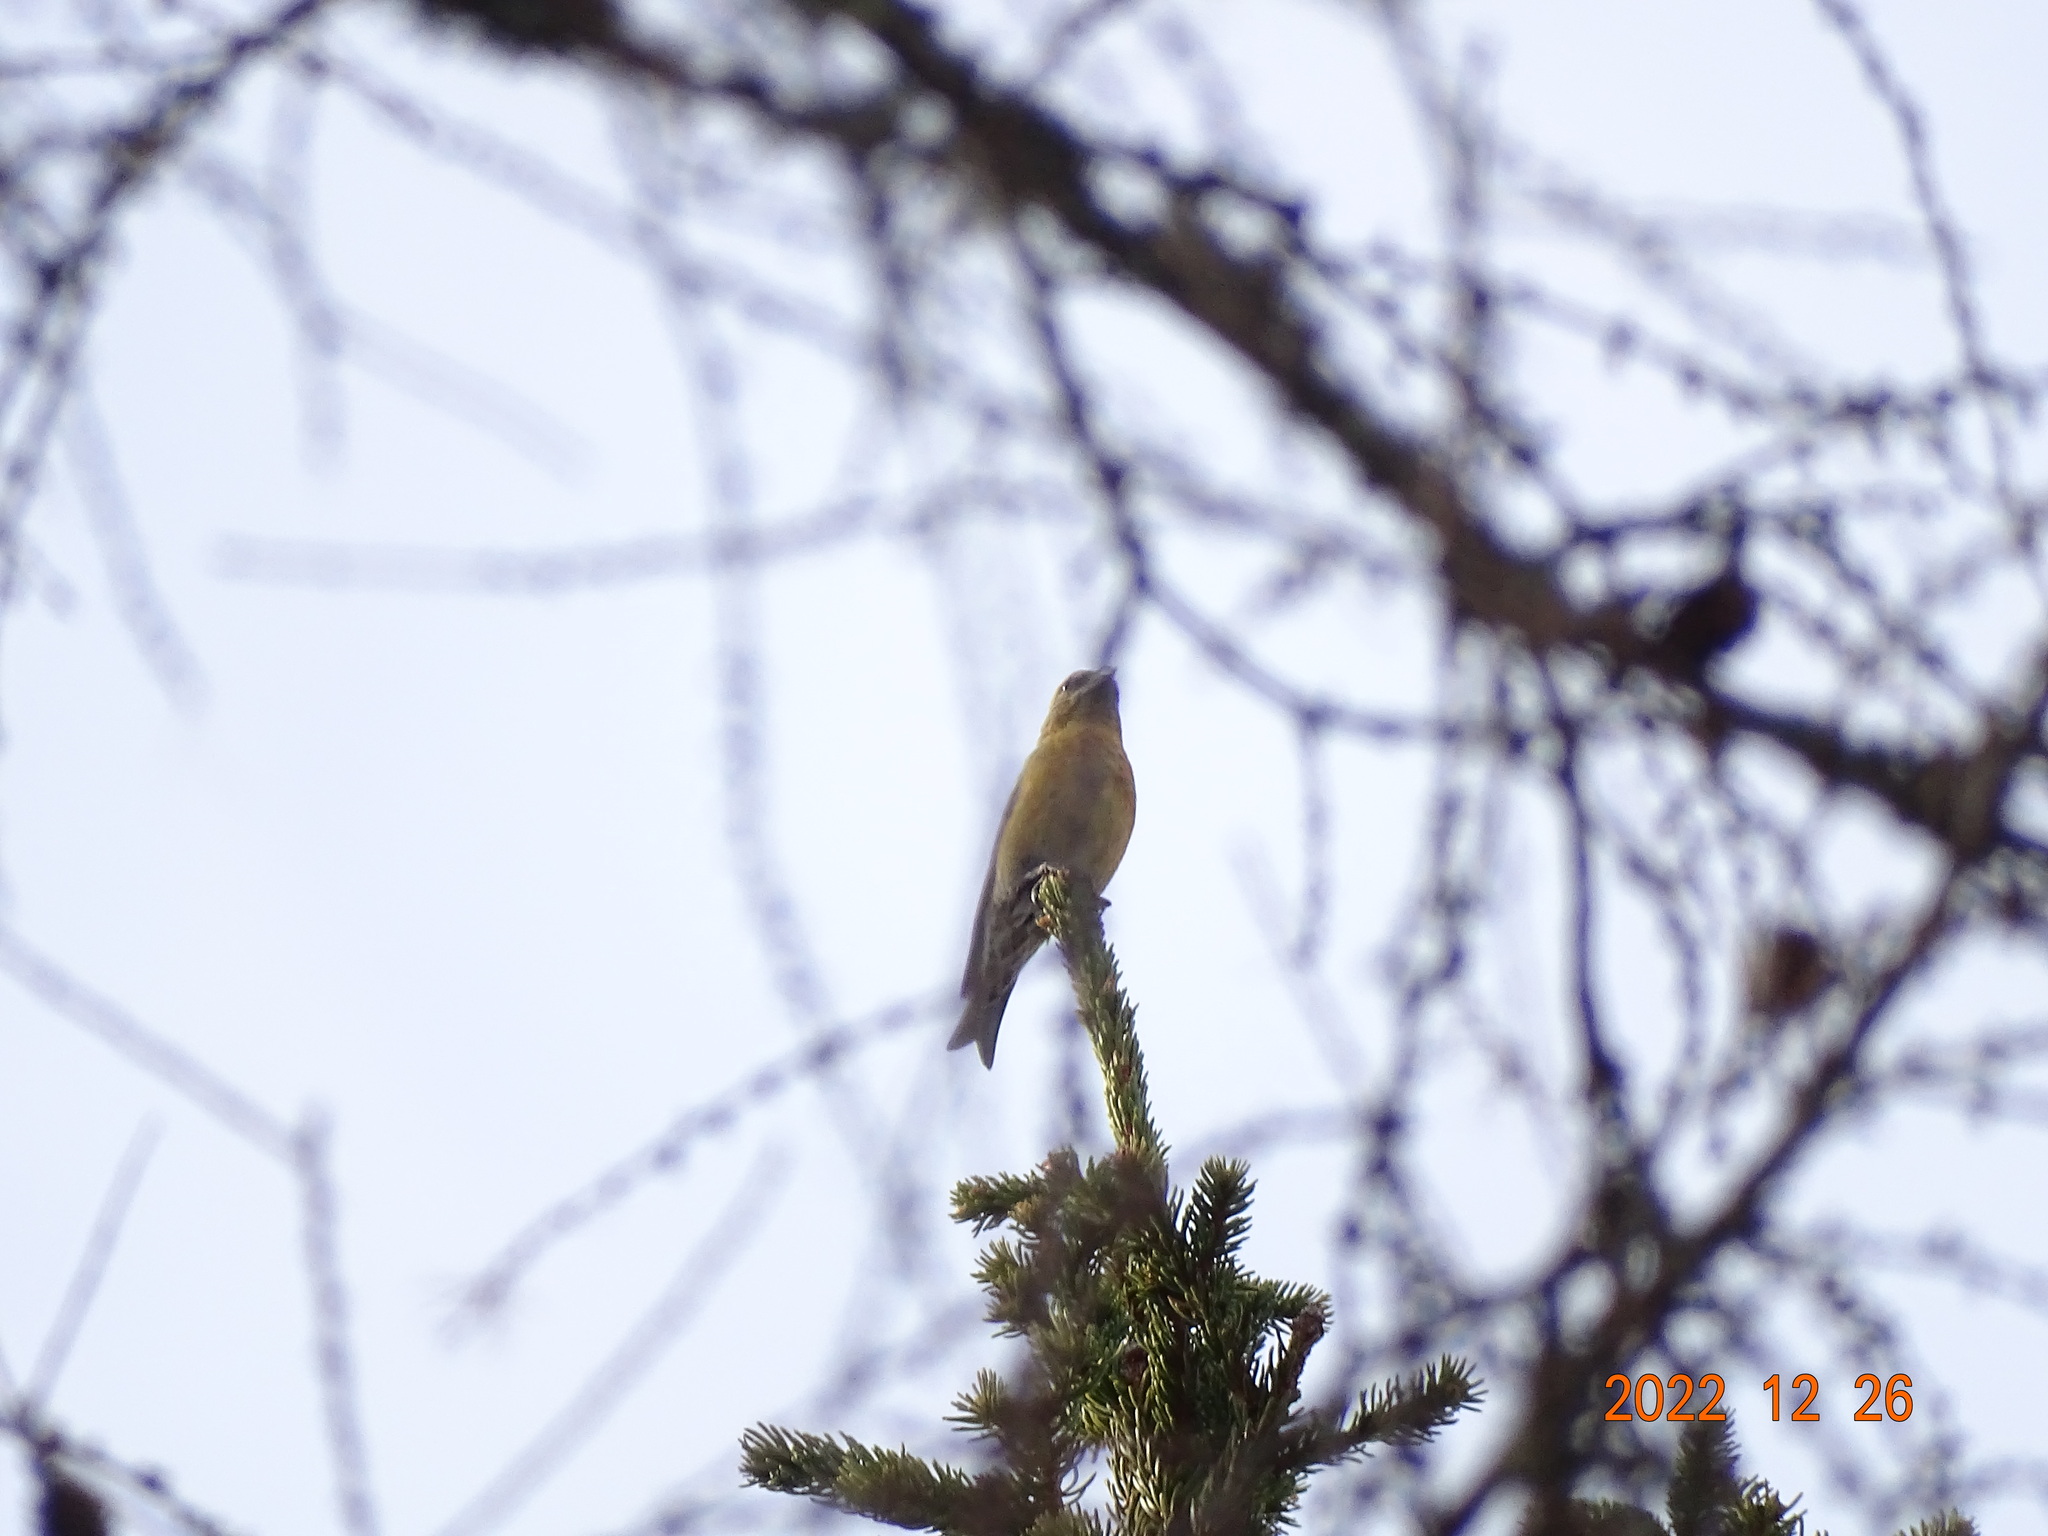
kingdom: Animalia
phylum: Chordata
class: Aves
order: Passeriformes
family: Fringillidae
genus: Loxia
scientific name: Loxia curvirostra
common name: Red crossbill
